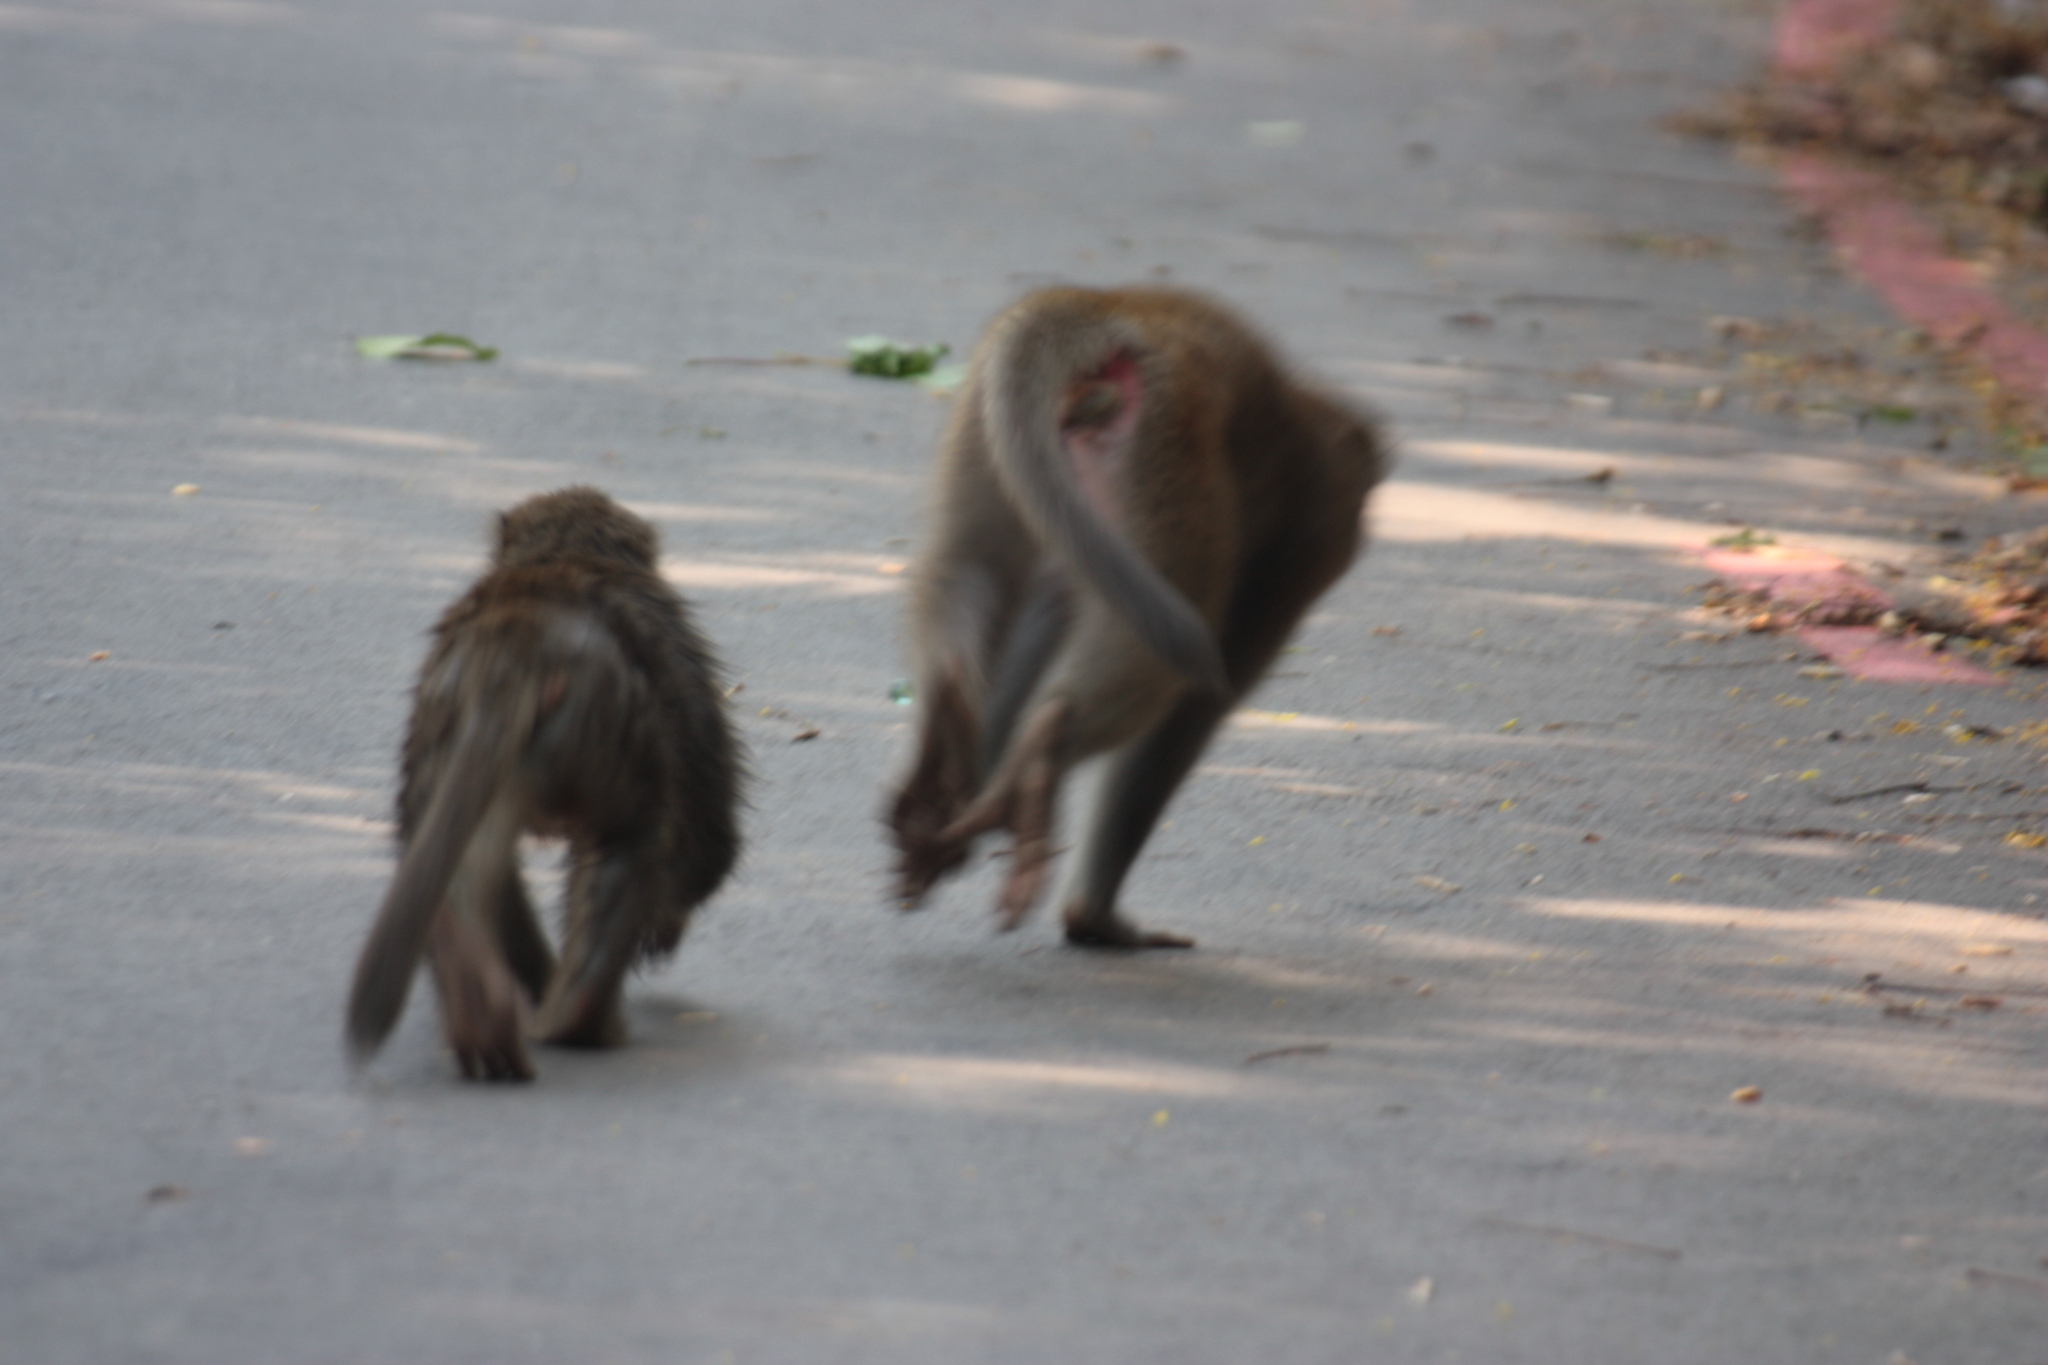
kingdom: Animalia
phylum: Chordata
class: Mammalia
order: Primates
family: Cercopithecidae
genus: Macaca
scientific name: Macaca cyclopis
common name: Formosan rock macaque
